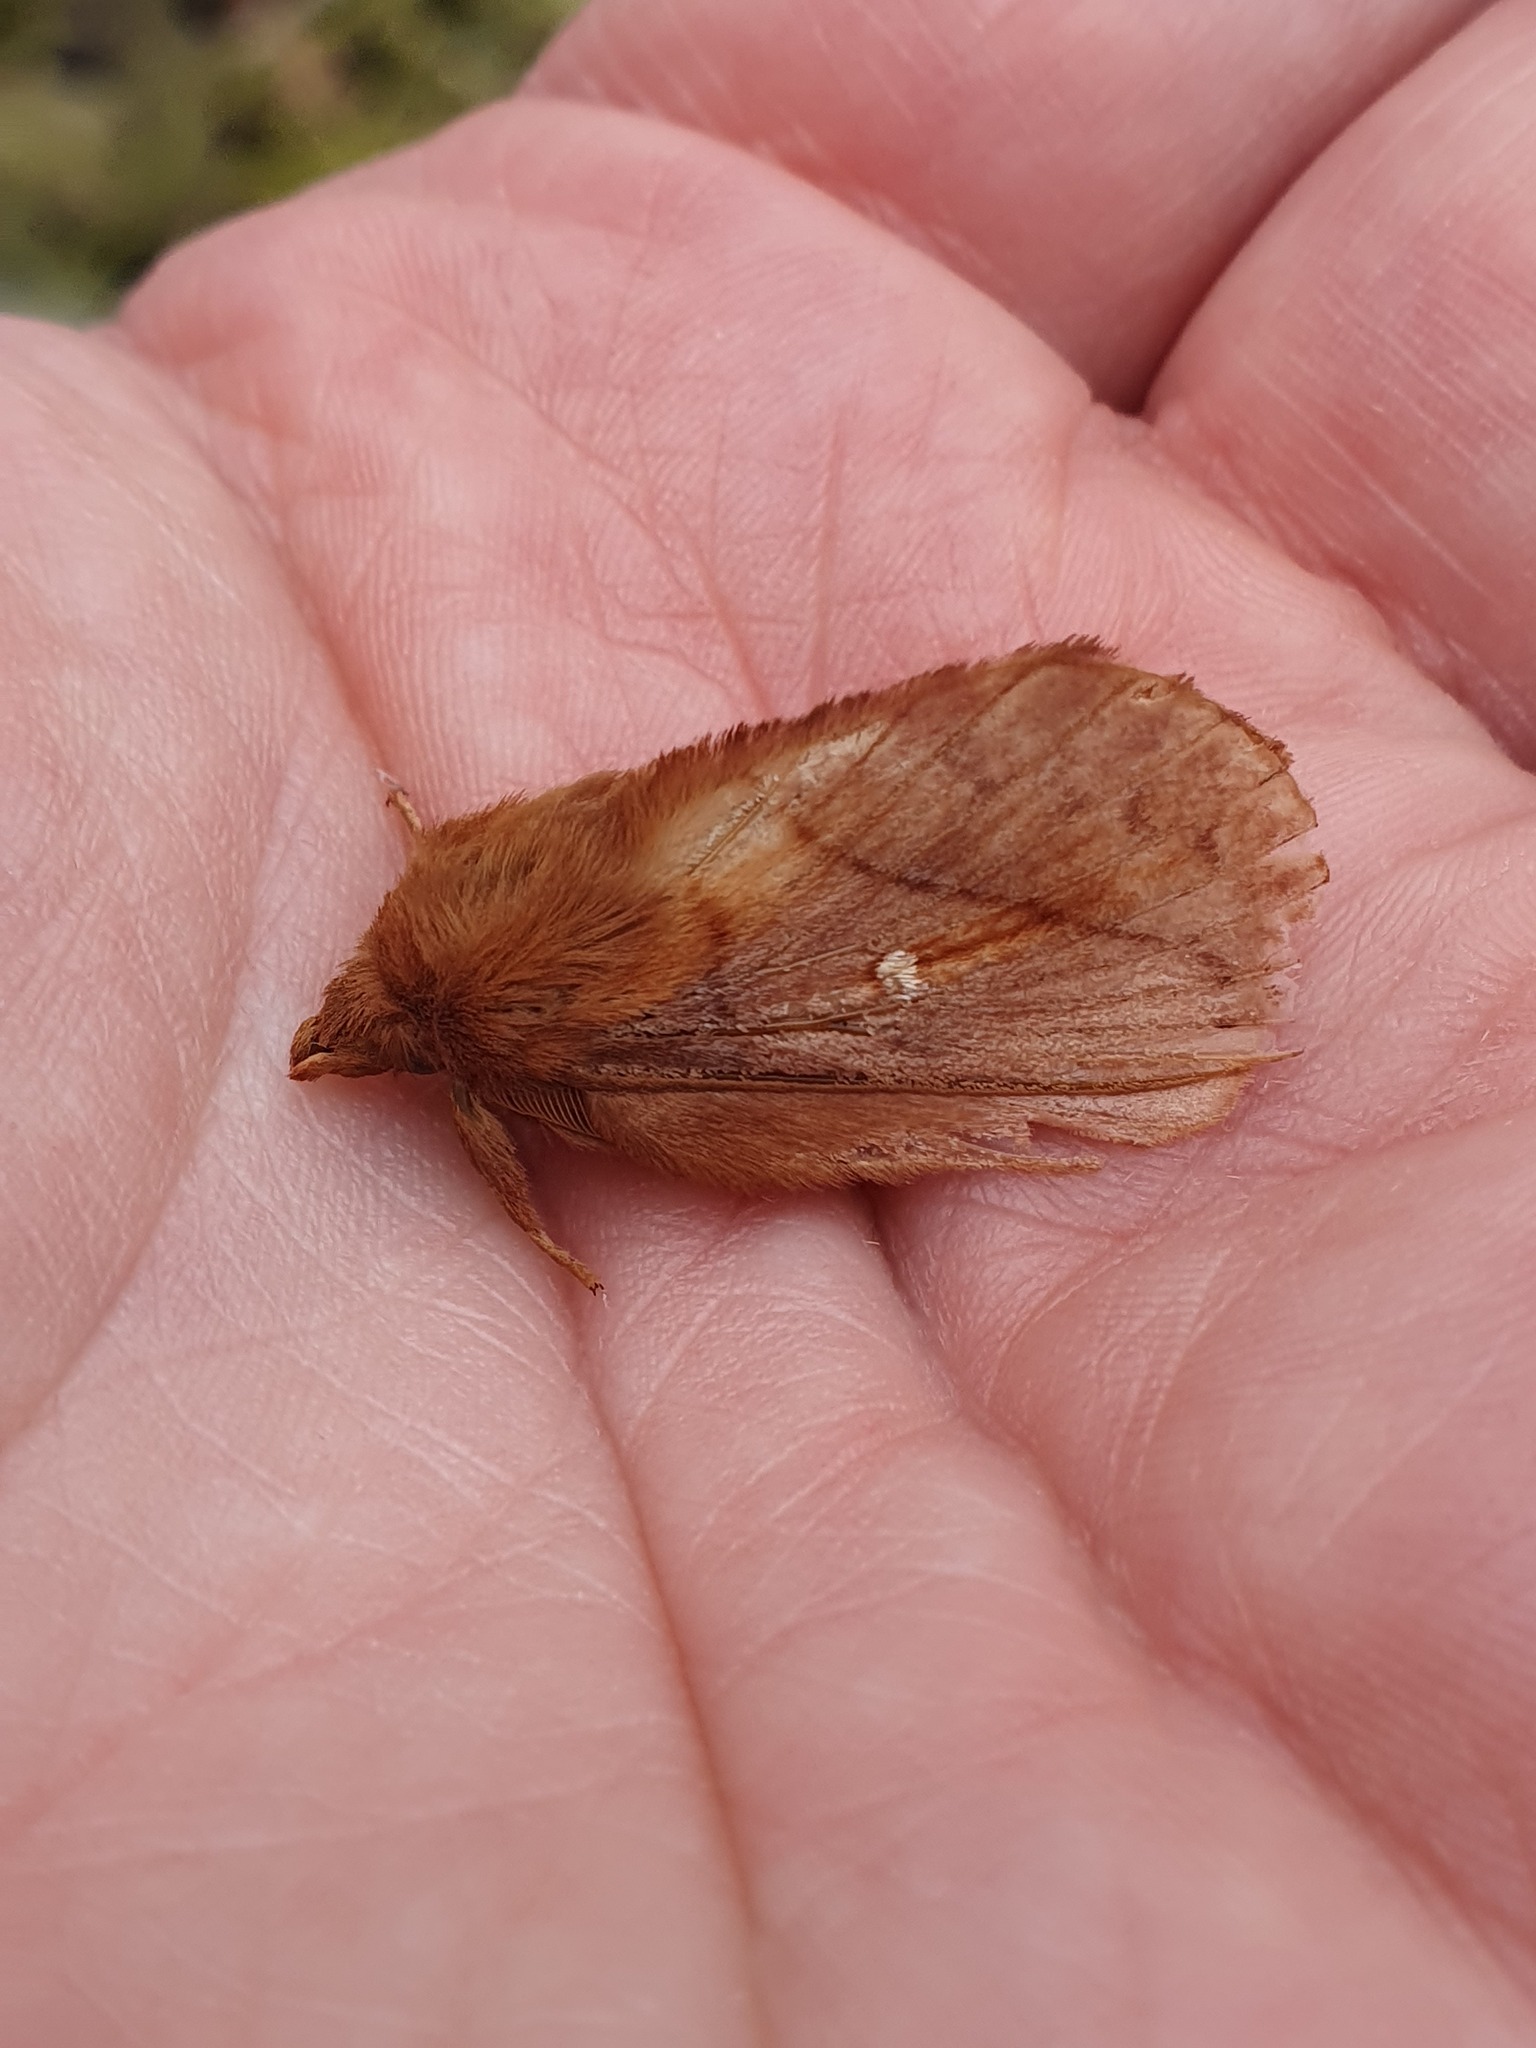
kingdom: Animalia
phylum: Arthropoda
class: Insecta
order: Lepidoptera
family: Lasiocampidae
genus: Euthrix
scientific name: Euthrix potatoria
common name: Drinker
